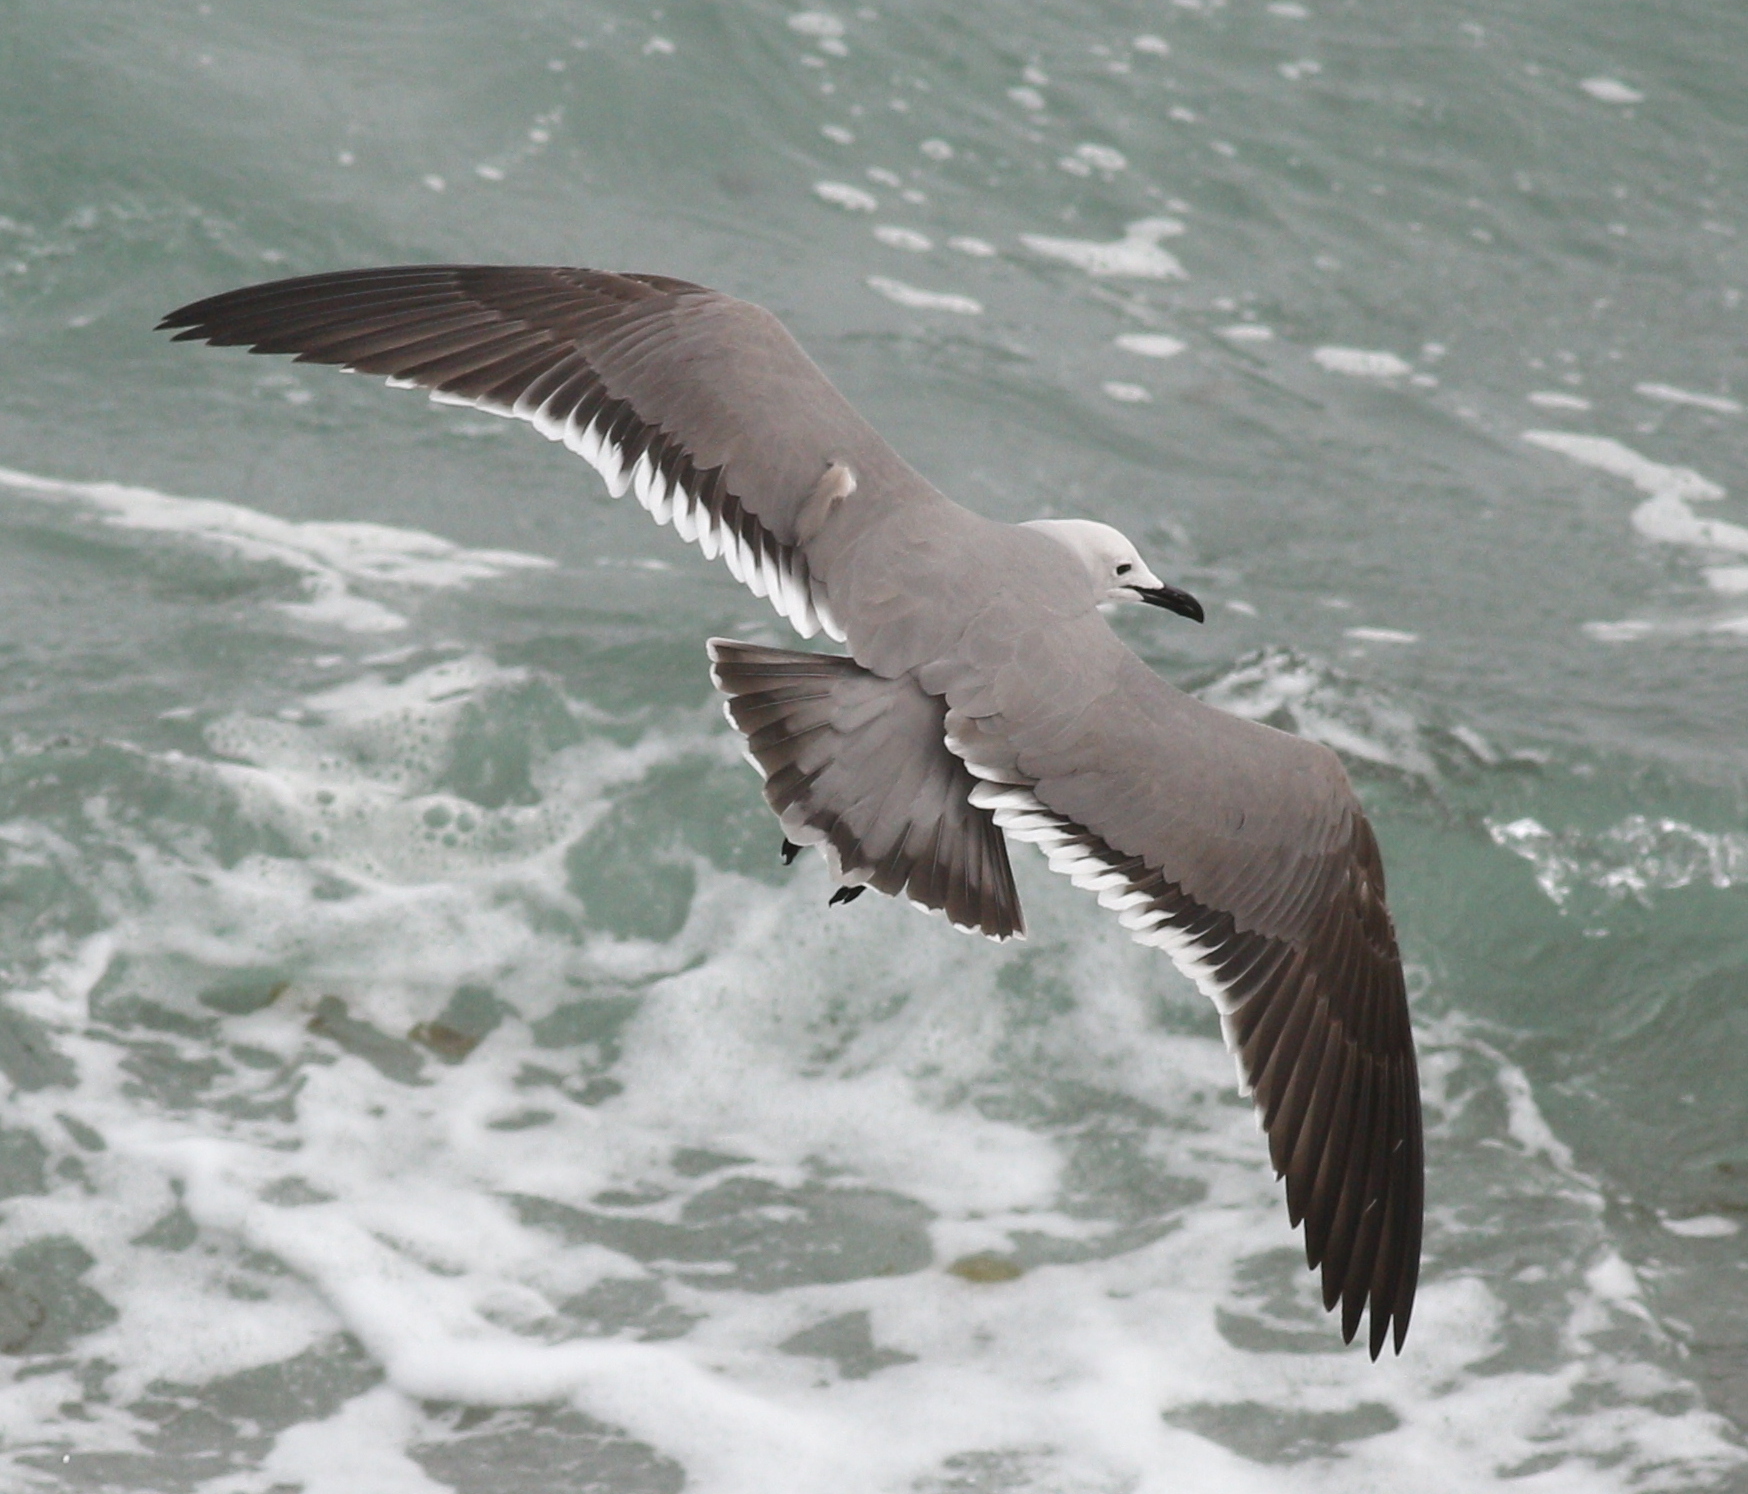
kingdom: Animalia
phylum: Chordata
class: Aves
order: Charadriiformes
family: Laridae
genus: Leucophaeus
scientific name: Leucophaeus modestus
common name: Gray gull
